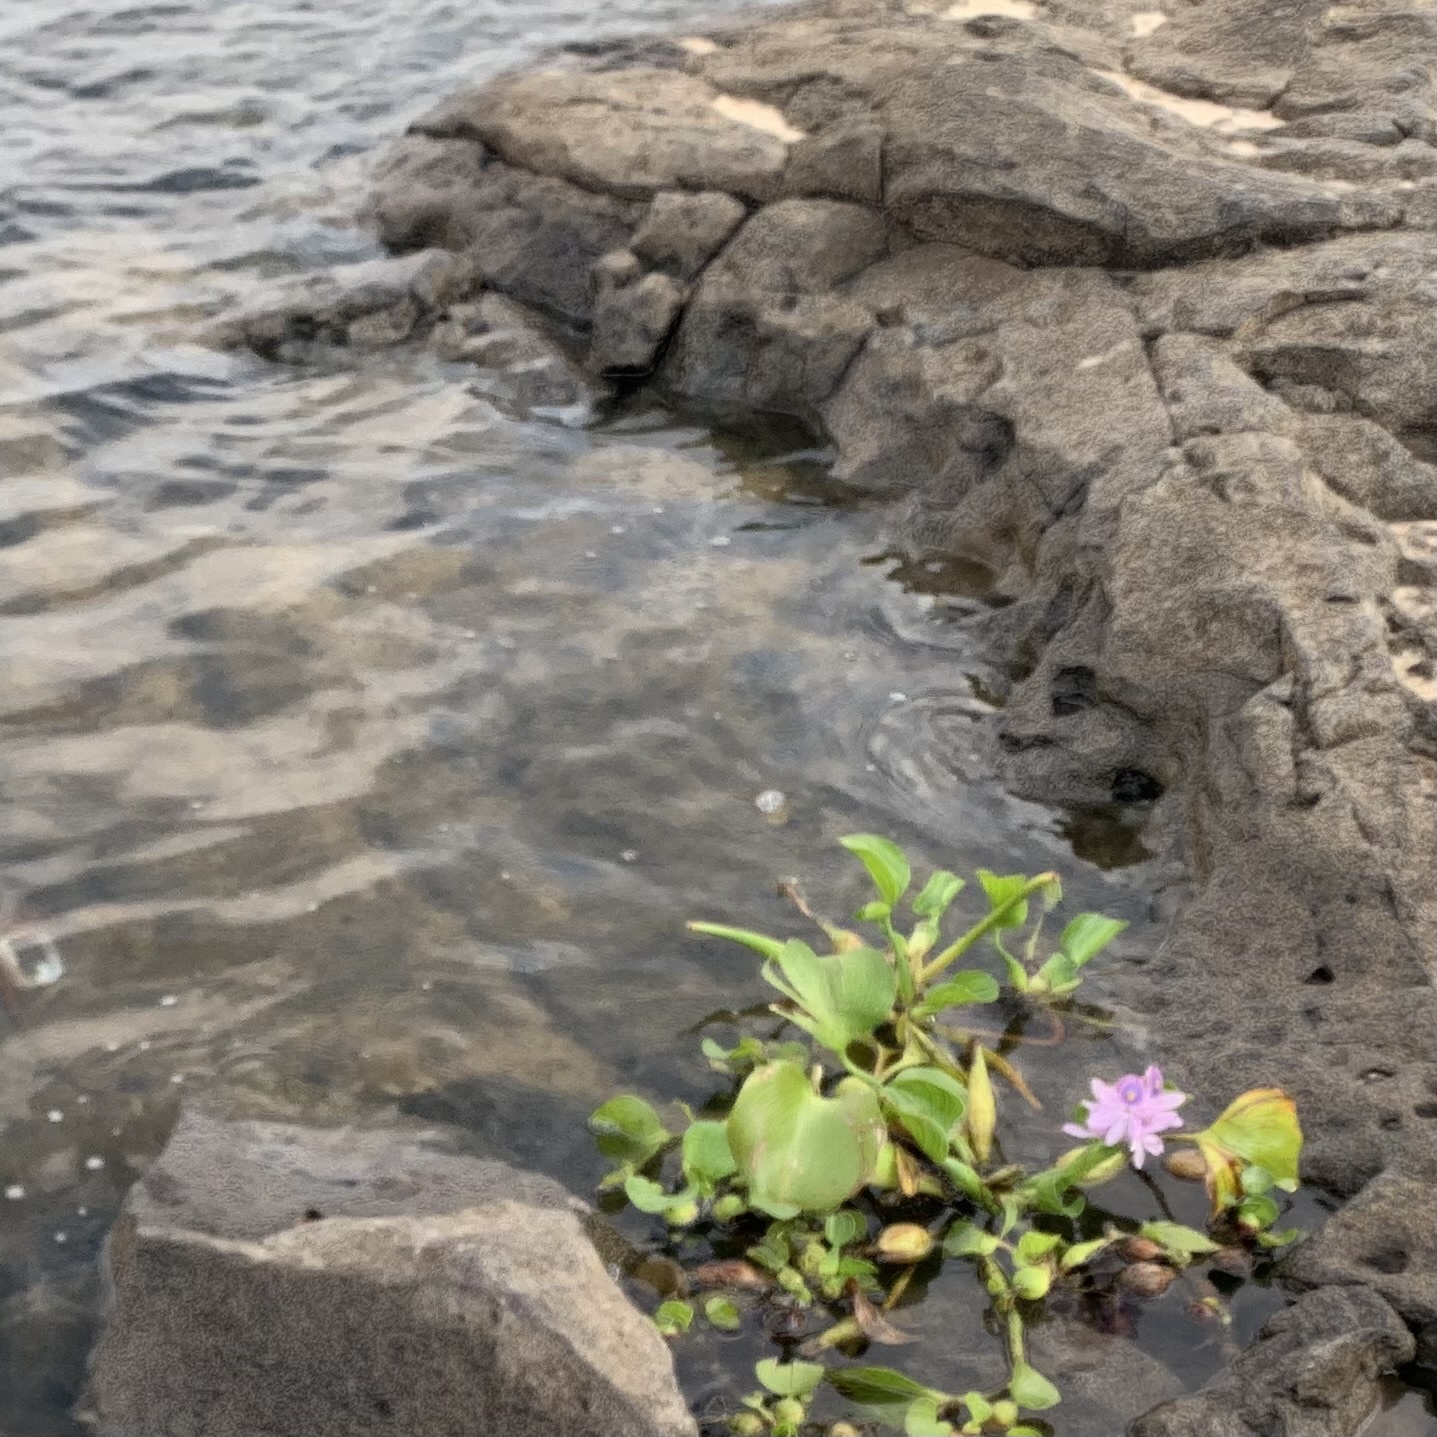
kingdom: Plantae
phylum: Tracheophyta
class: Liliopsida
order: Commelinales
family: Pontederiaceae
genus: Pontederia
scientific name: Pontederia crassipes
